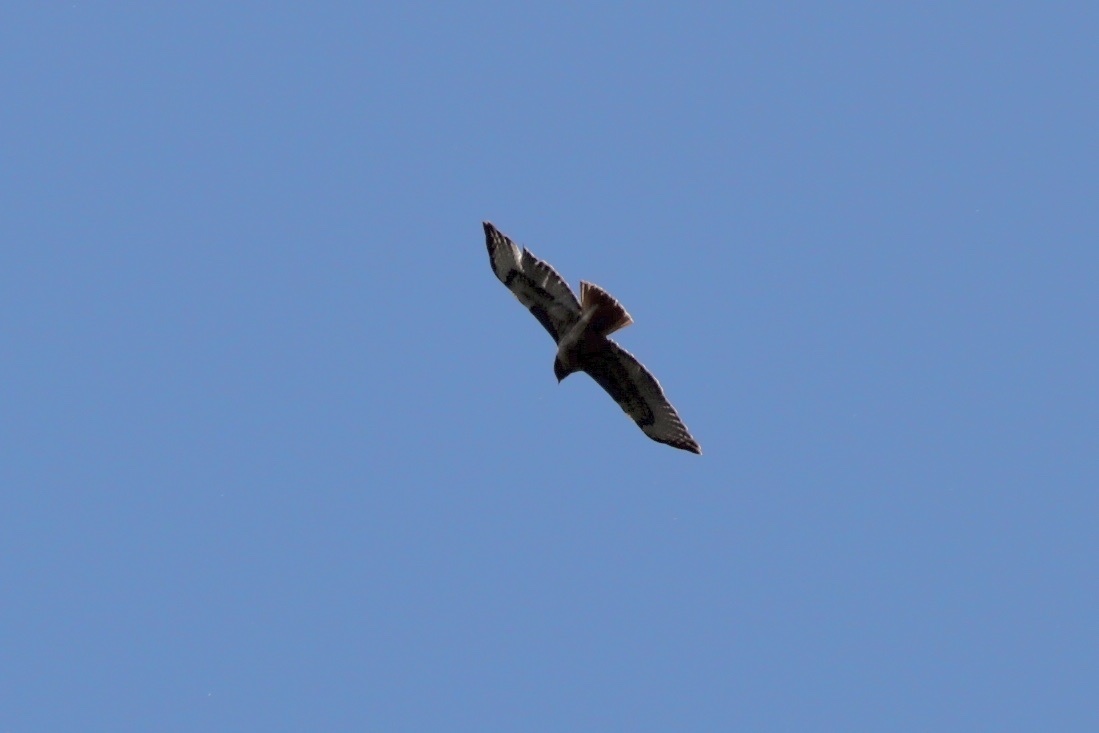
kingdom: Animalia
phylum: Chordata
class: Aves
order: Accipitriformes
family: Accipitridae
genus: Buteo
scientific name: Buteo jamaicensis
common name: Red-tailed hawk
